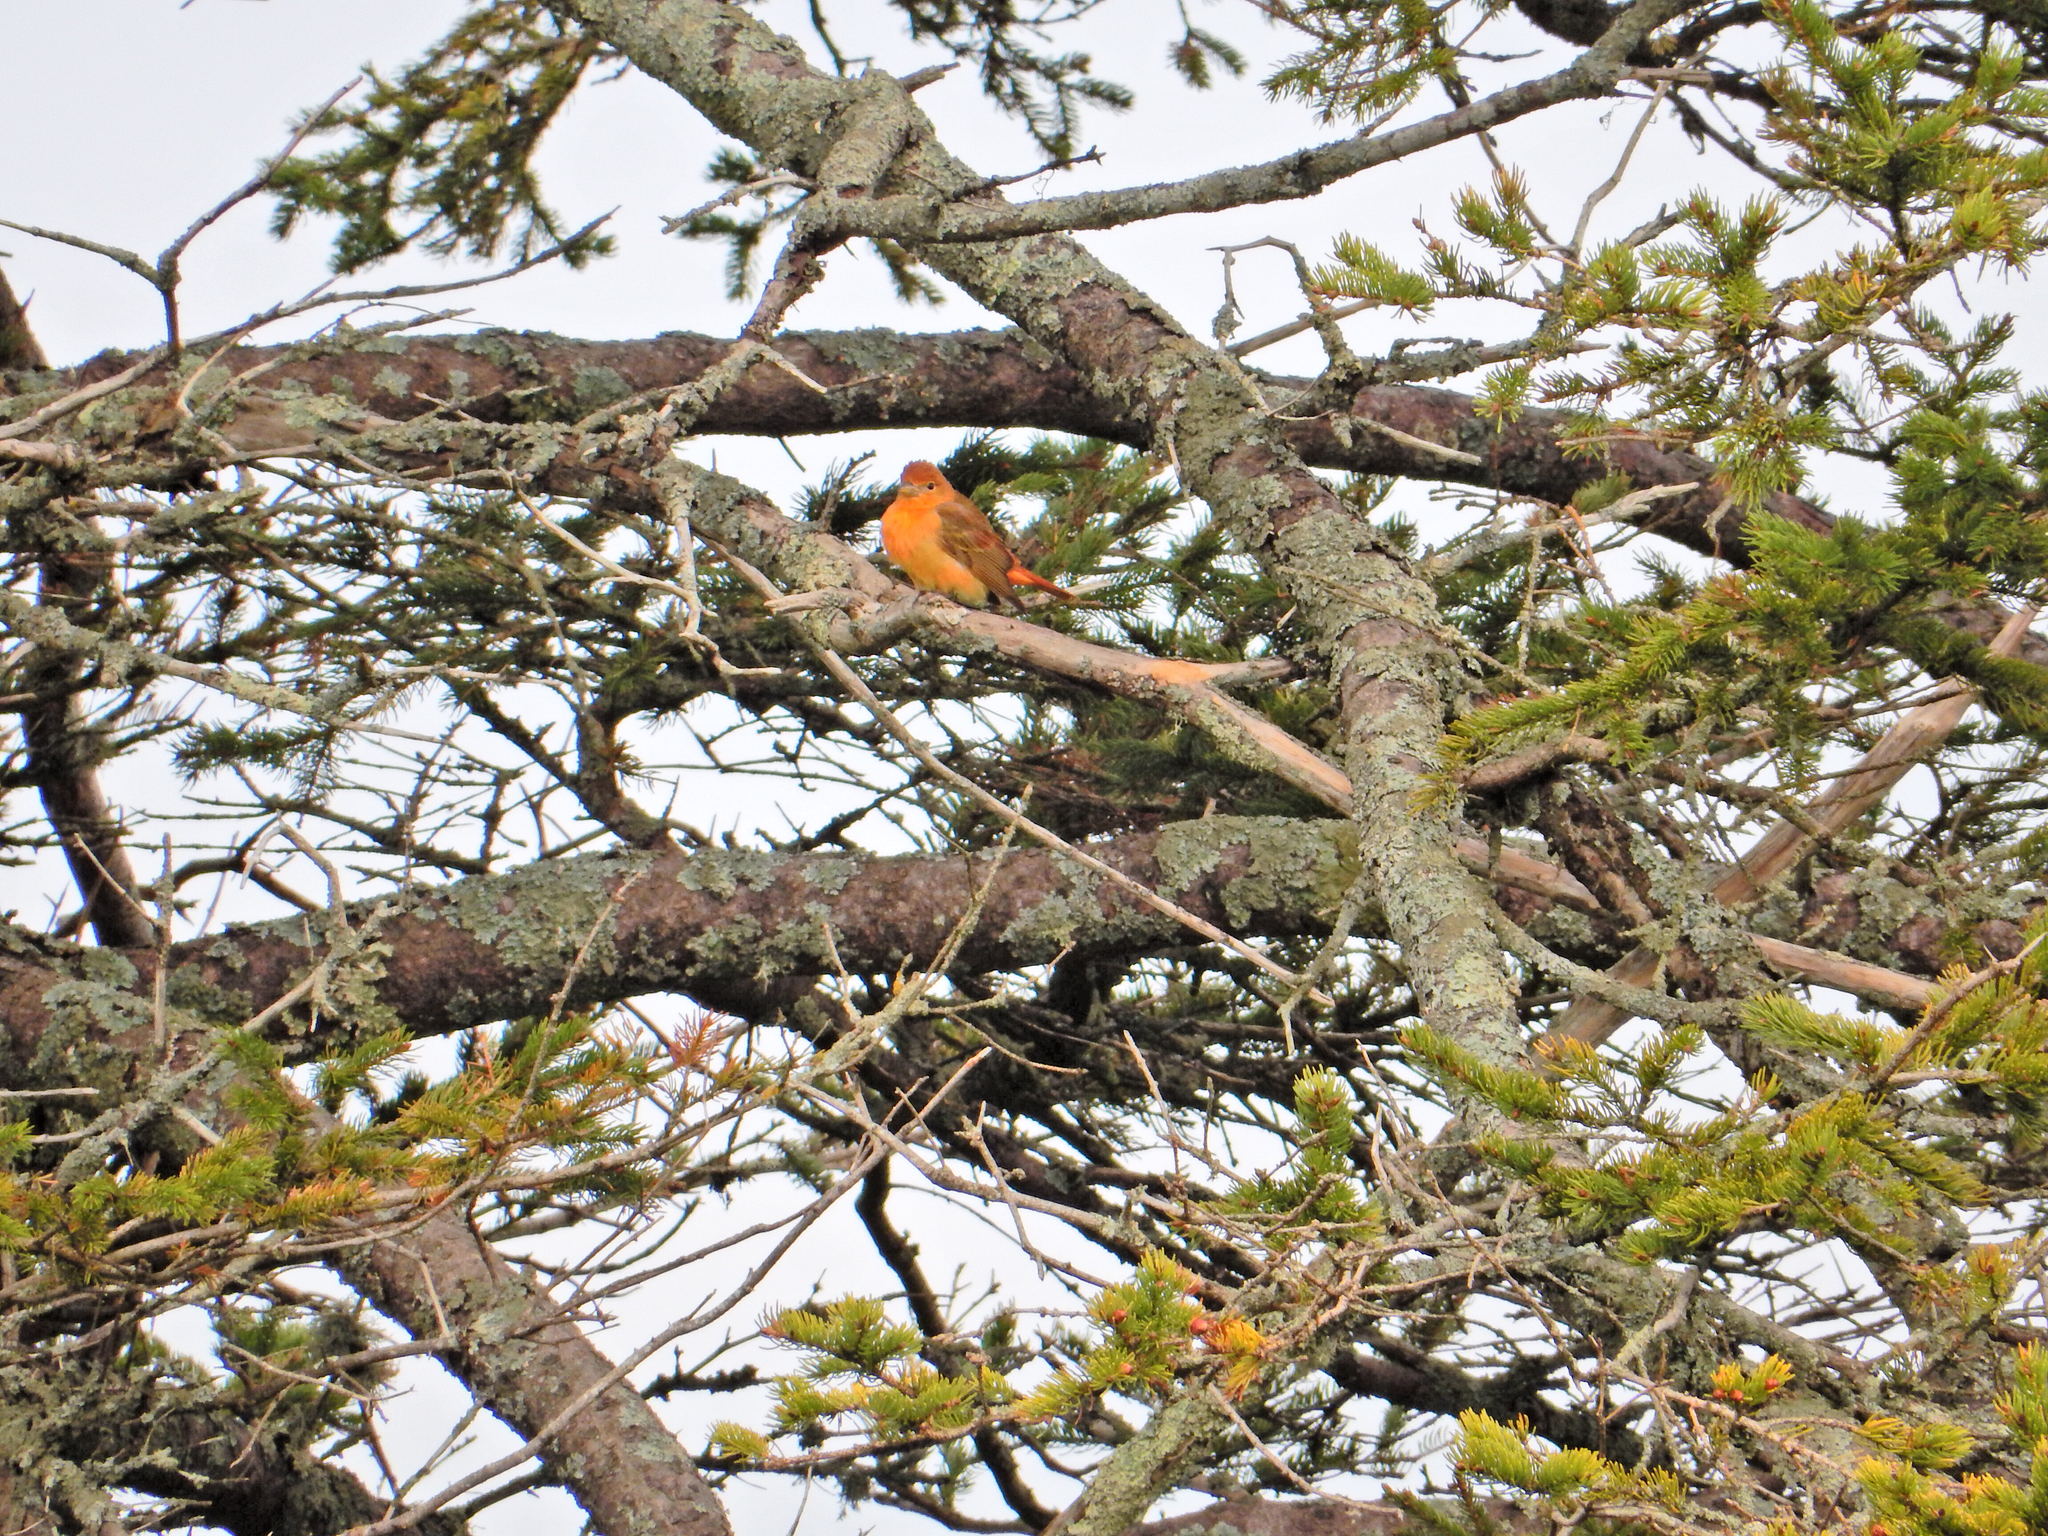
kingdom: Animalia
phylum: Chordata
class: Aves
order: Passeriformes
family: Cardinalidae
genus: Piranga
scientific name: Piranga rubra
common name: Summer tanager
